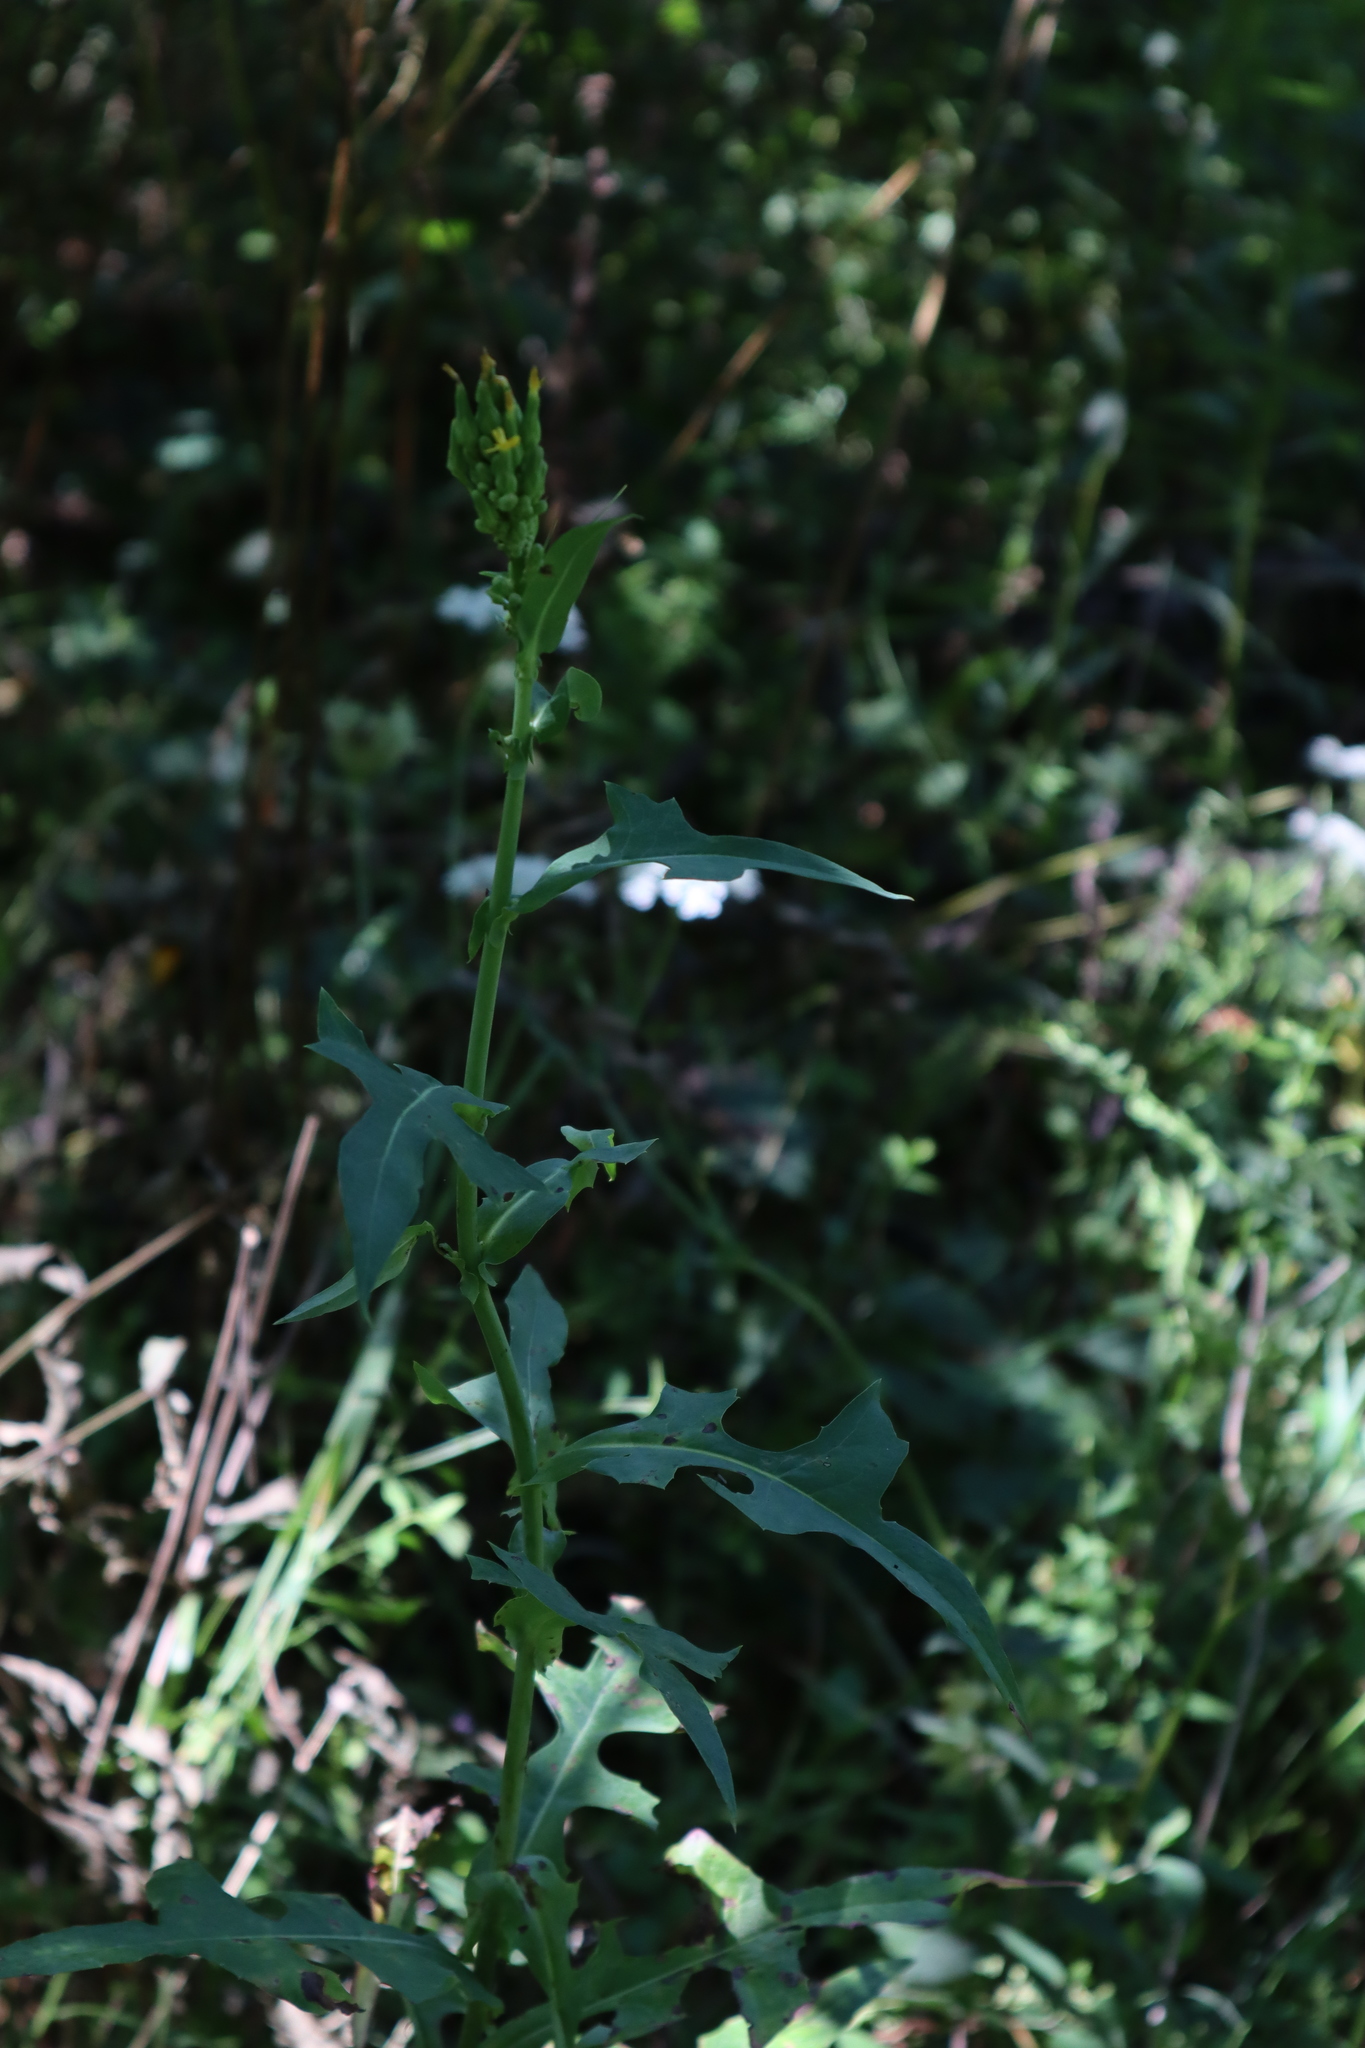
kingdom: Plantae
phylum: Tracheophyta
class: Magnoliopsida
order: Asterales
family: Asteraceae
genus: Lactuca
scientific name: Lactuca canadensis
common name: Canada lettuce
